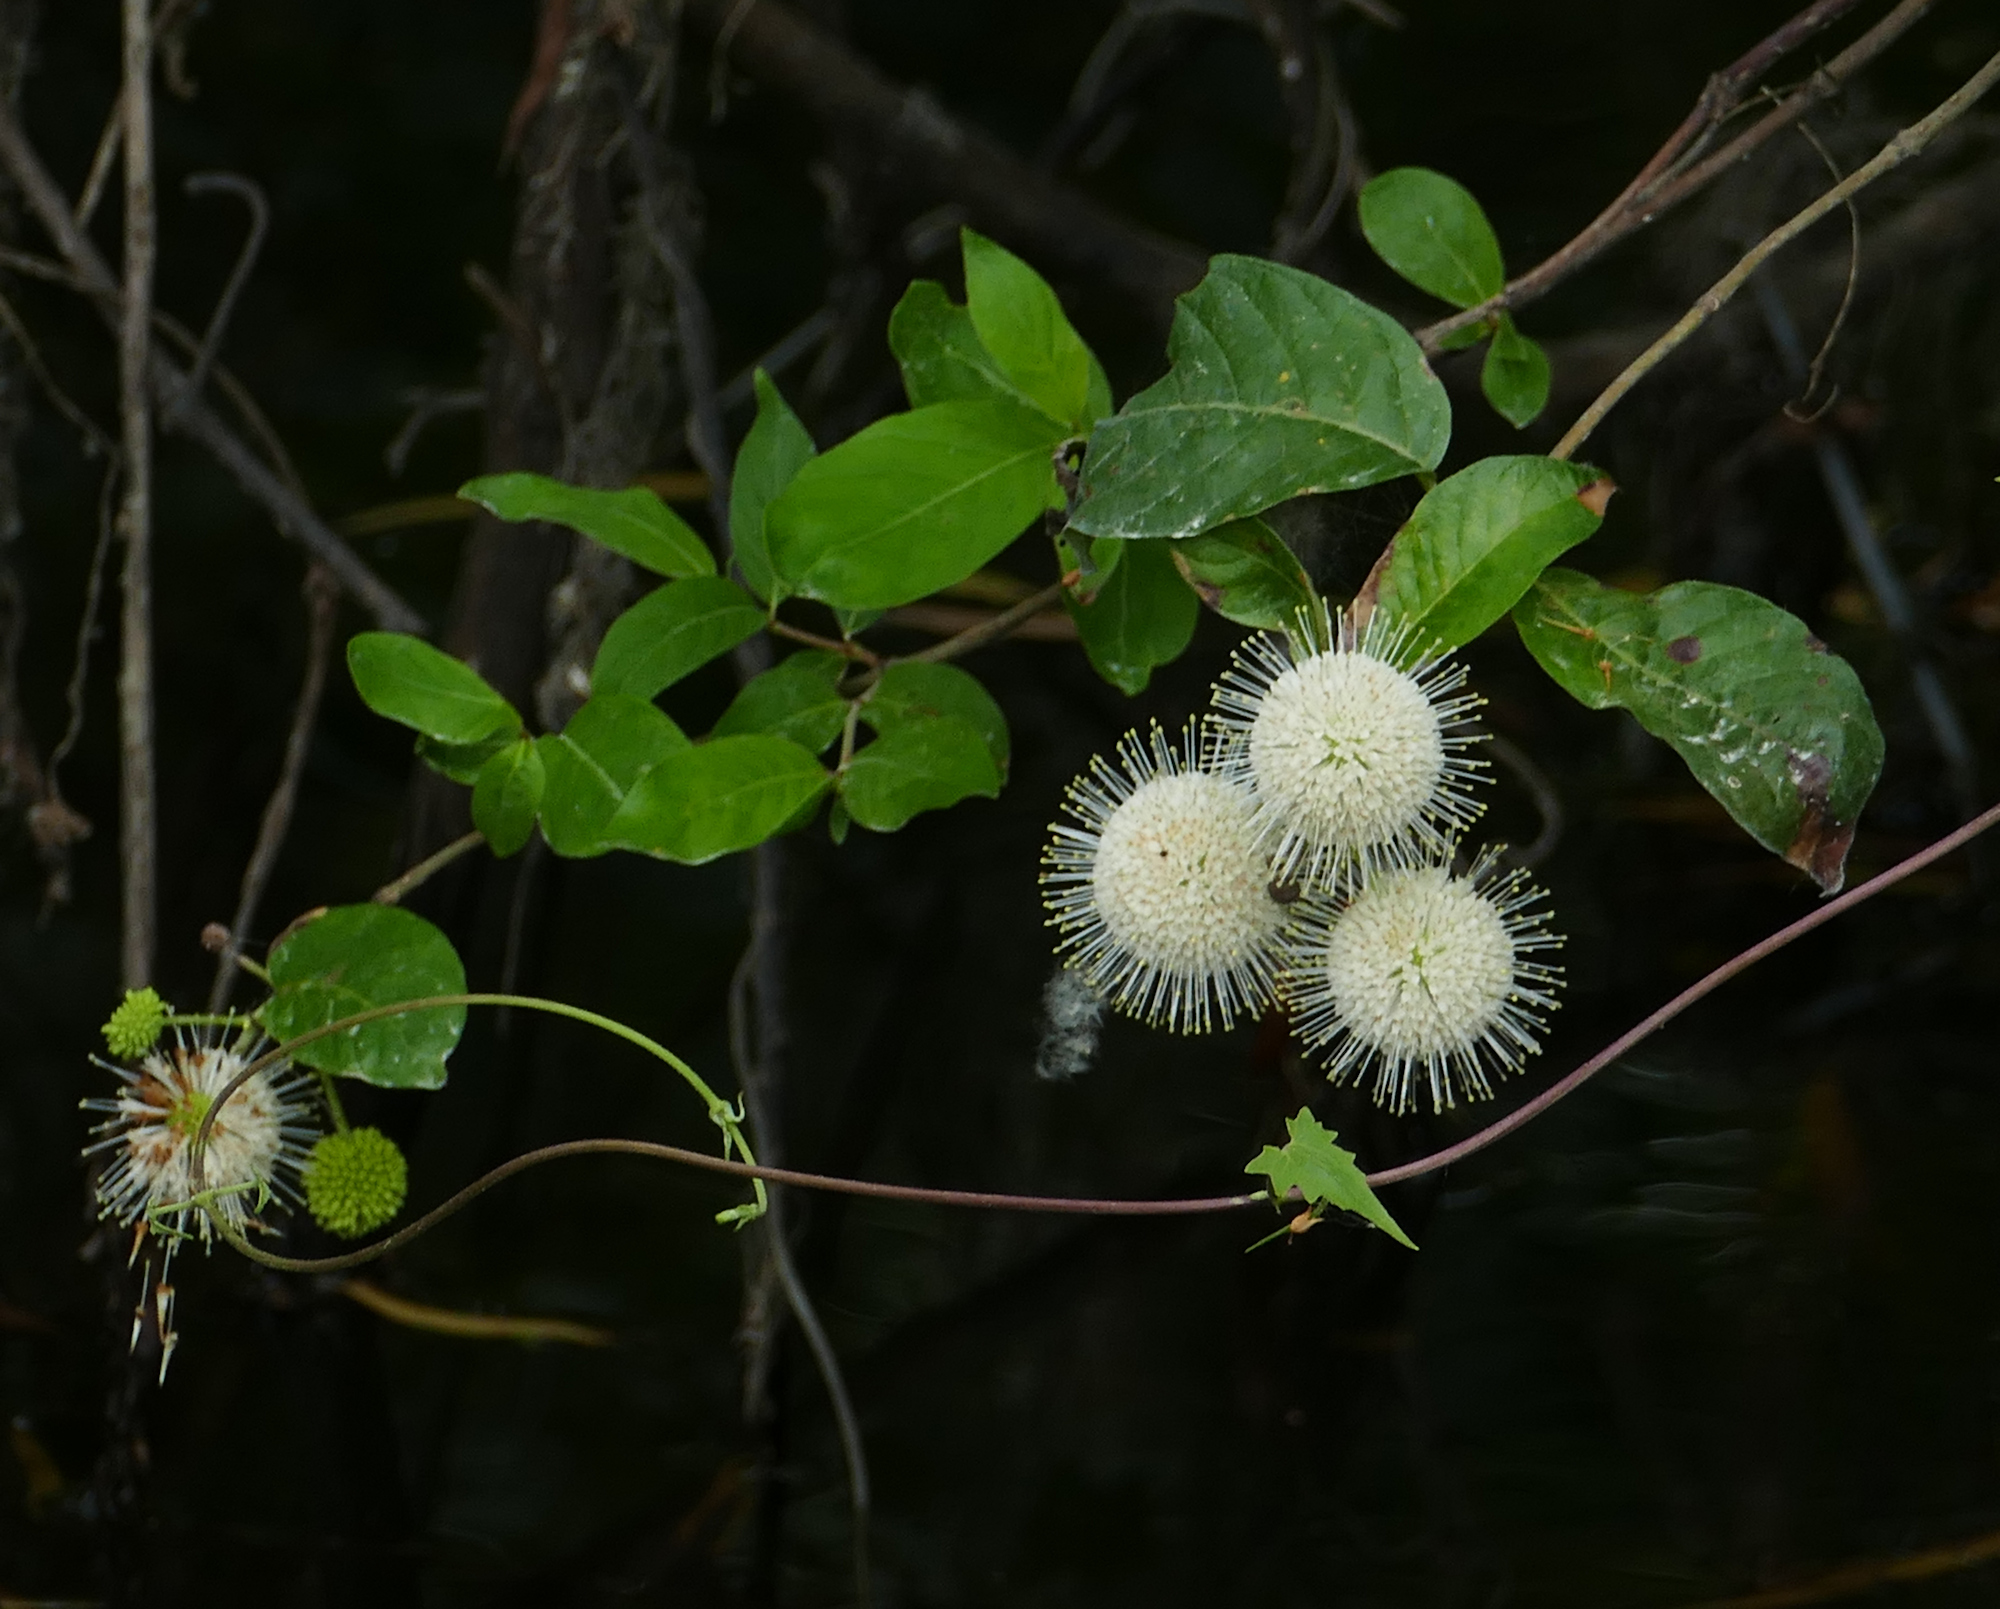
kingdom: Plantae
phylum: Tracheophyta
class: Magnoliopsida
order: Gentianales
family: Rubiaceae
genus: Cephalanthus
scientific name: Cephalanthus occidentalis
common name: Button-willow
